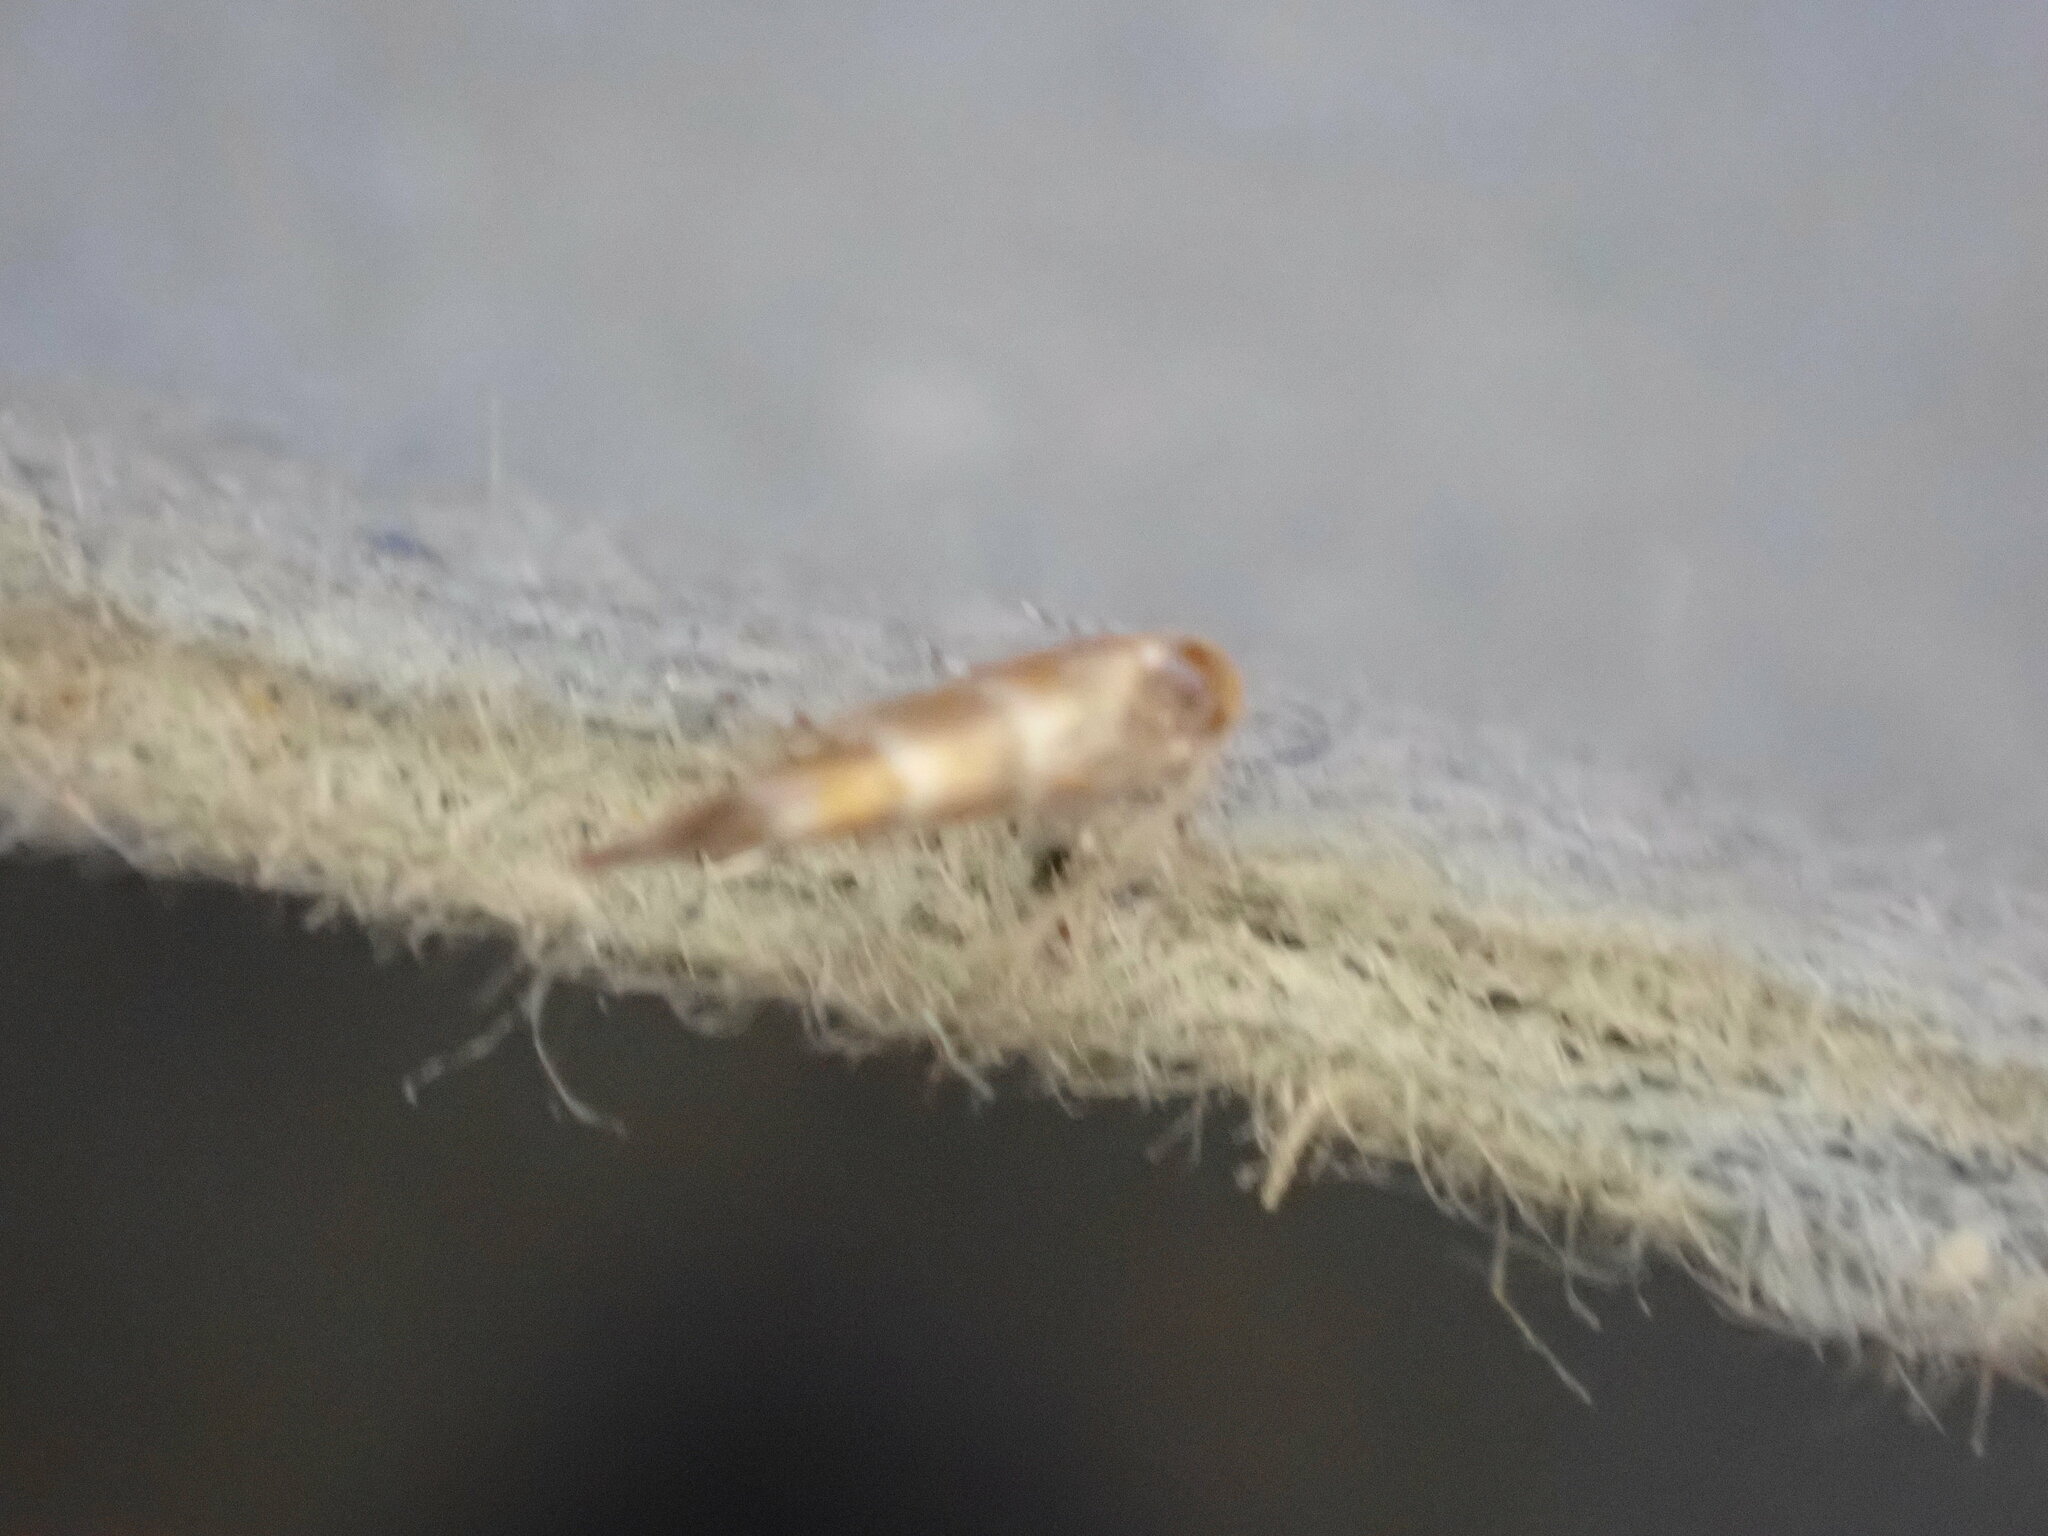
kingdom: Animalia
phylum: Arthropoda
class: Insecta
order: Lepidoptera
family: Gracillariidae
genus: Cameraria
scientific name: Cameraria ohridella
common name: Horse-chestnut leaf-miner
